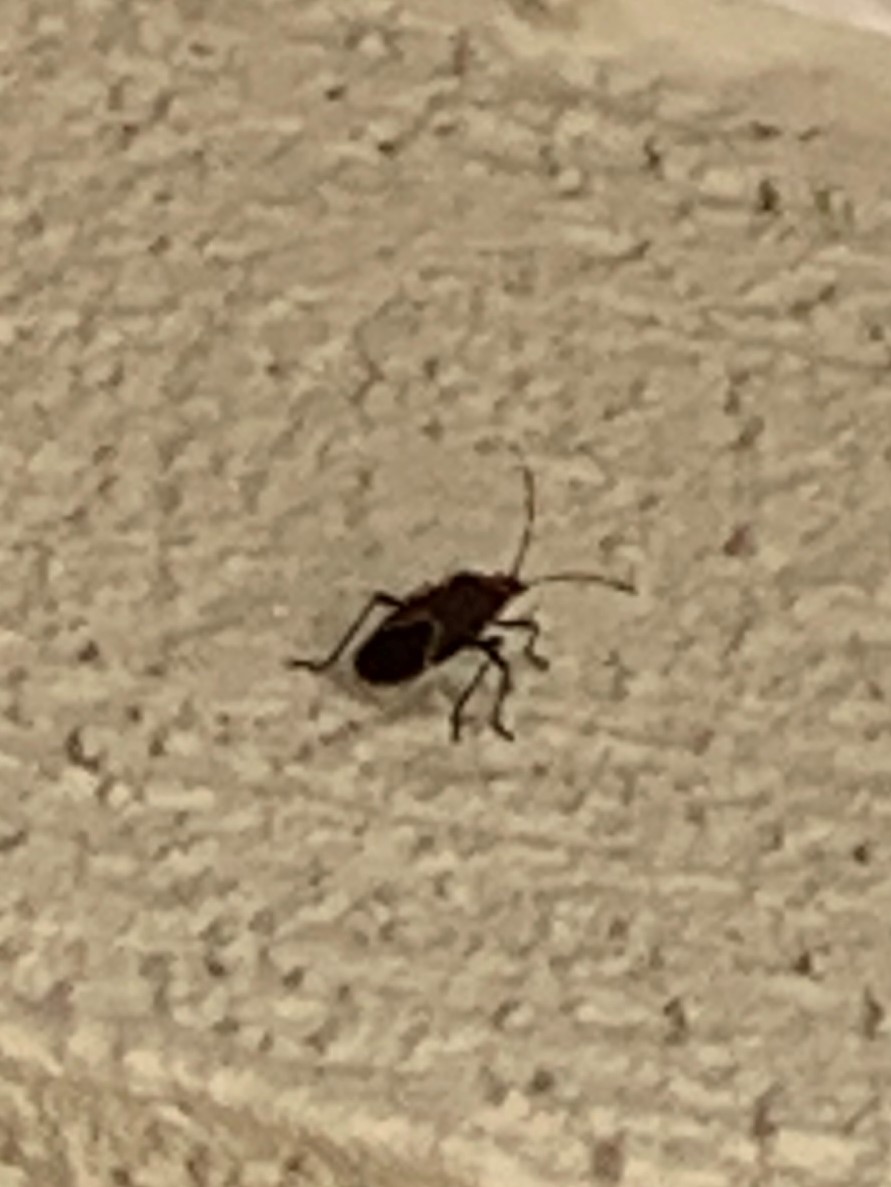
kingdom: Animalia
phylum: Arthropoda
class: Insecta
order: Hemiptera
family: Rhopalidae
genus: Boisea
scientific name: Boisea trivittata
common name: Boxelder bug
